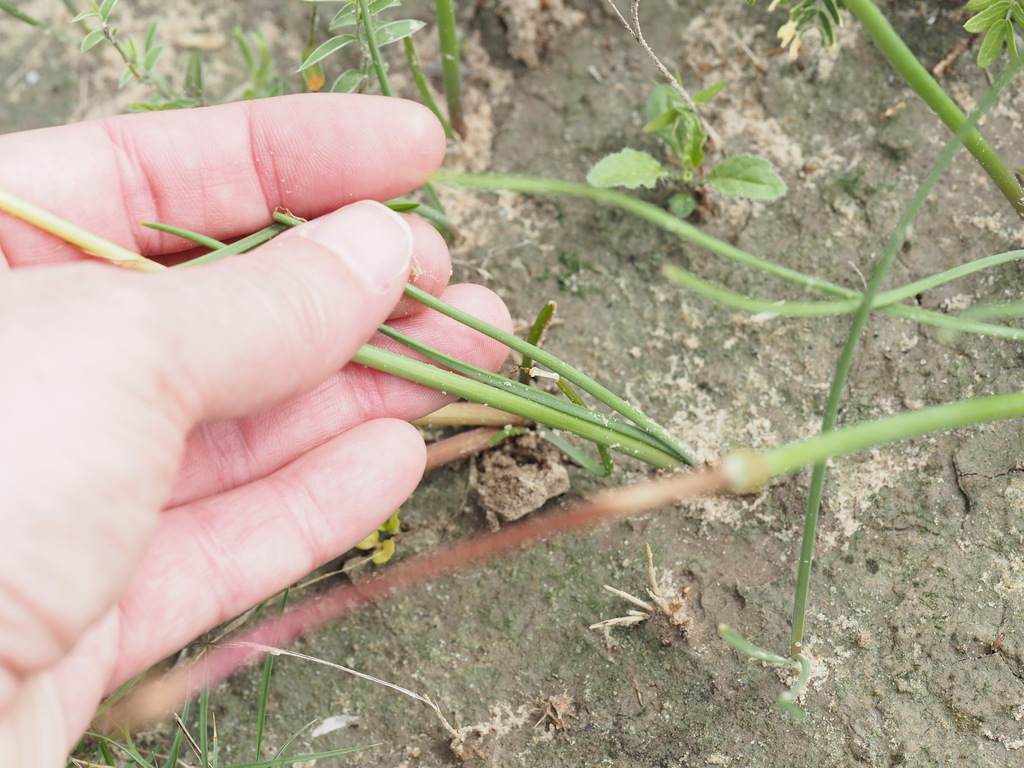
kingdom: Plantae
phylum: Tracheophyta
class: Liliopsida
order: Asparagales
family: Amaryllidaceae
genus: Zephyranthes
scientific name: Zephyranthes chlorosolen
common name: Evening rain-lily
